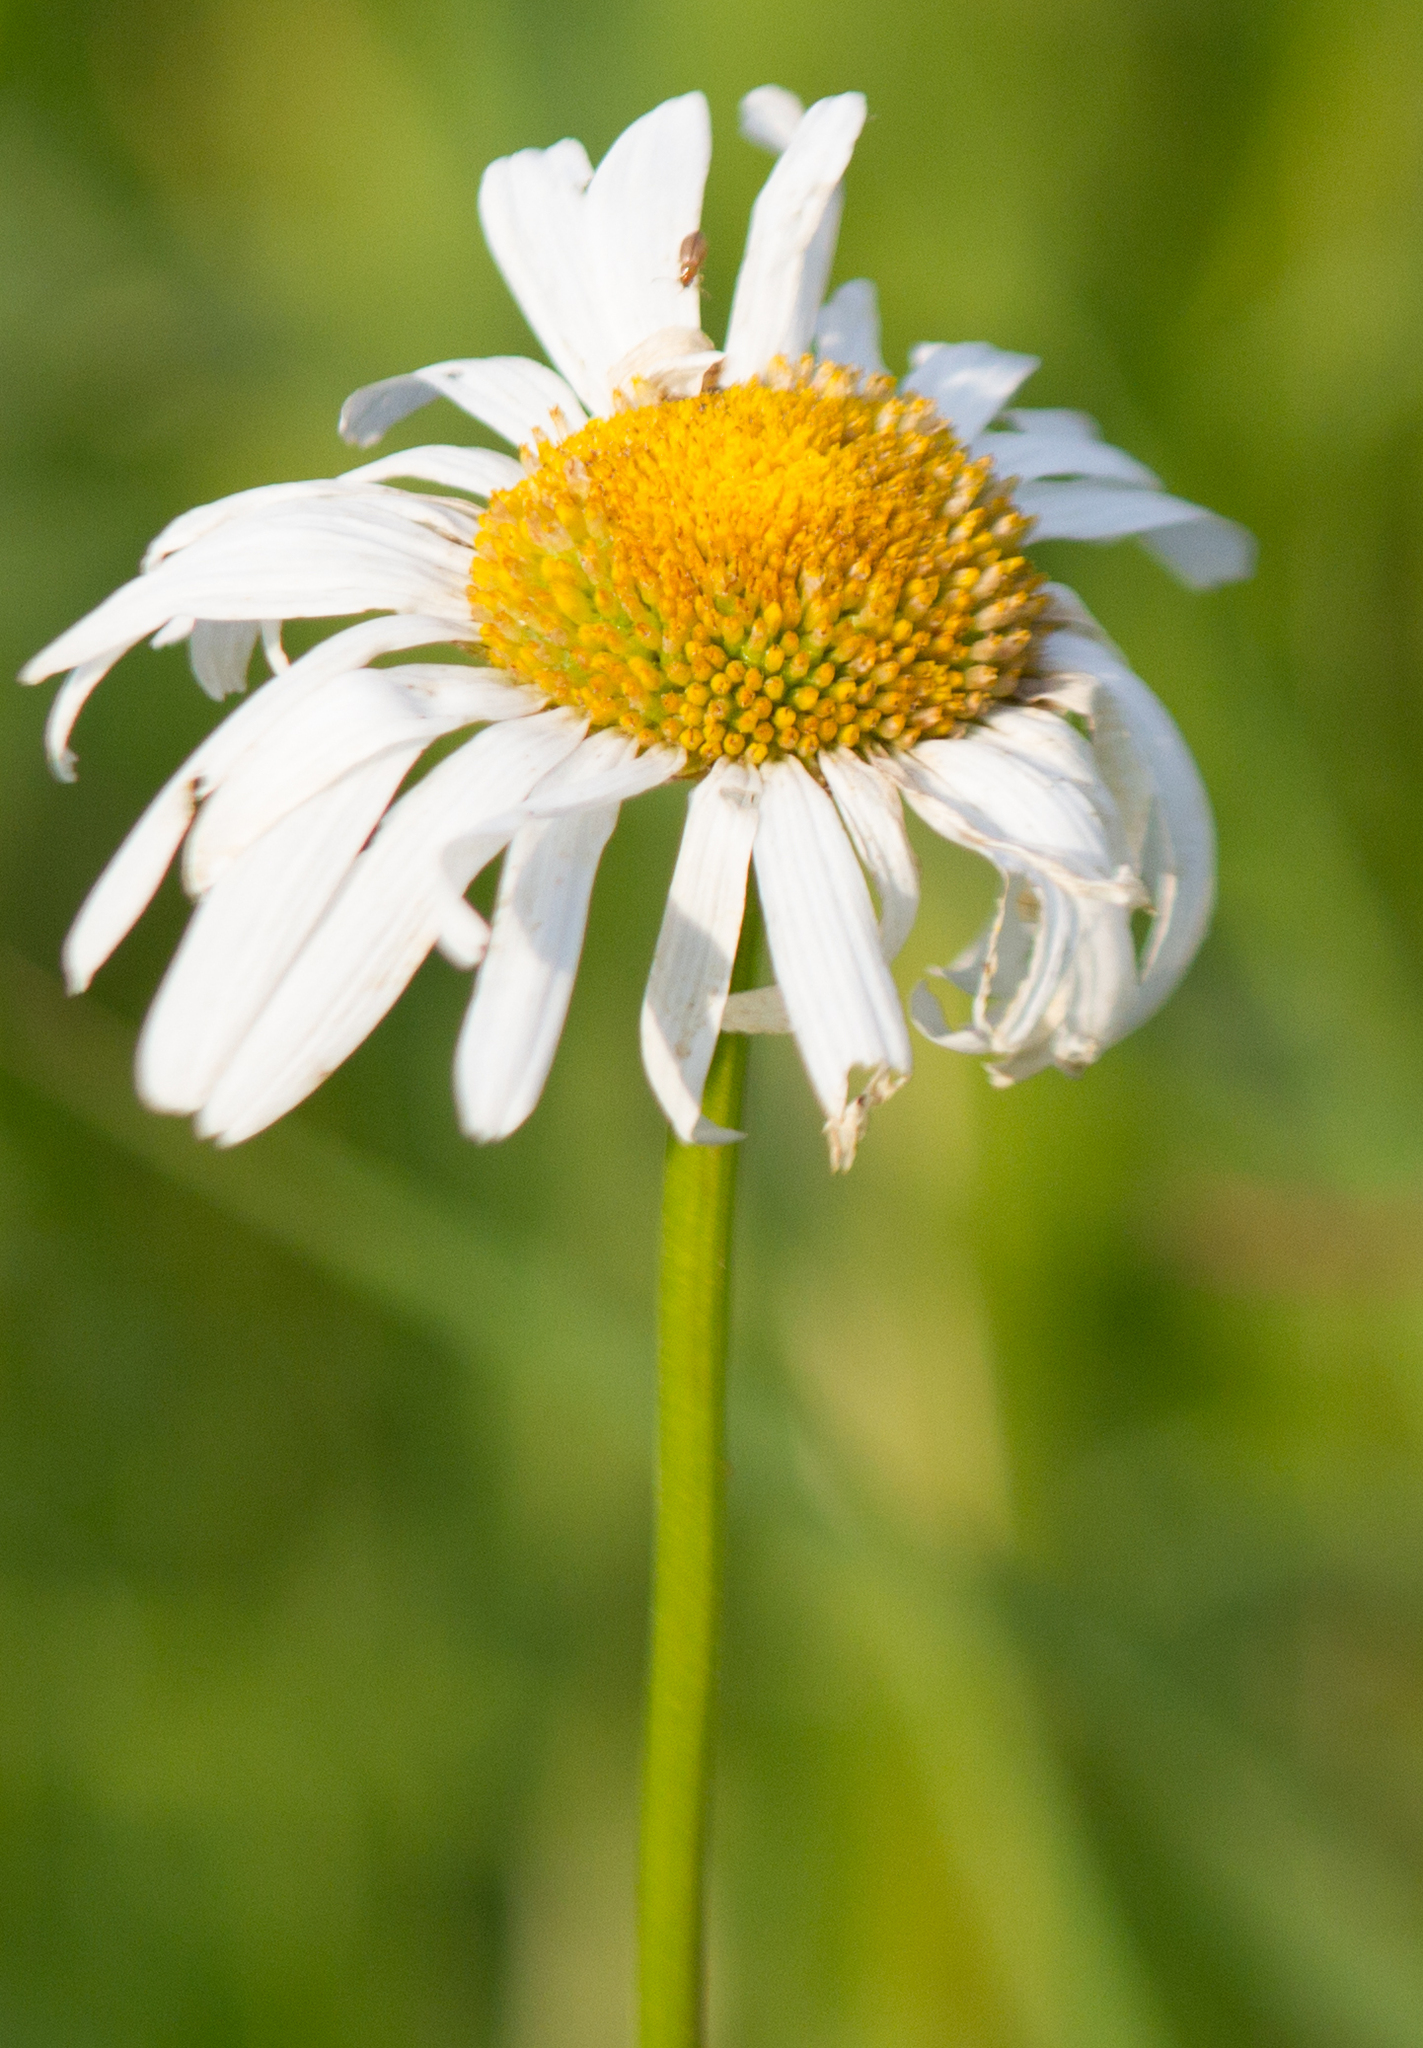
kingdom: Plantae
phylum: Tracheophyta
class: Magnoliopsida
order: Asterales
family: Asteraceae
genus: Leucanthemum
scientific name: Leucanthemum vulgare
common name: Oxeye daisy
